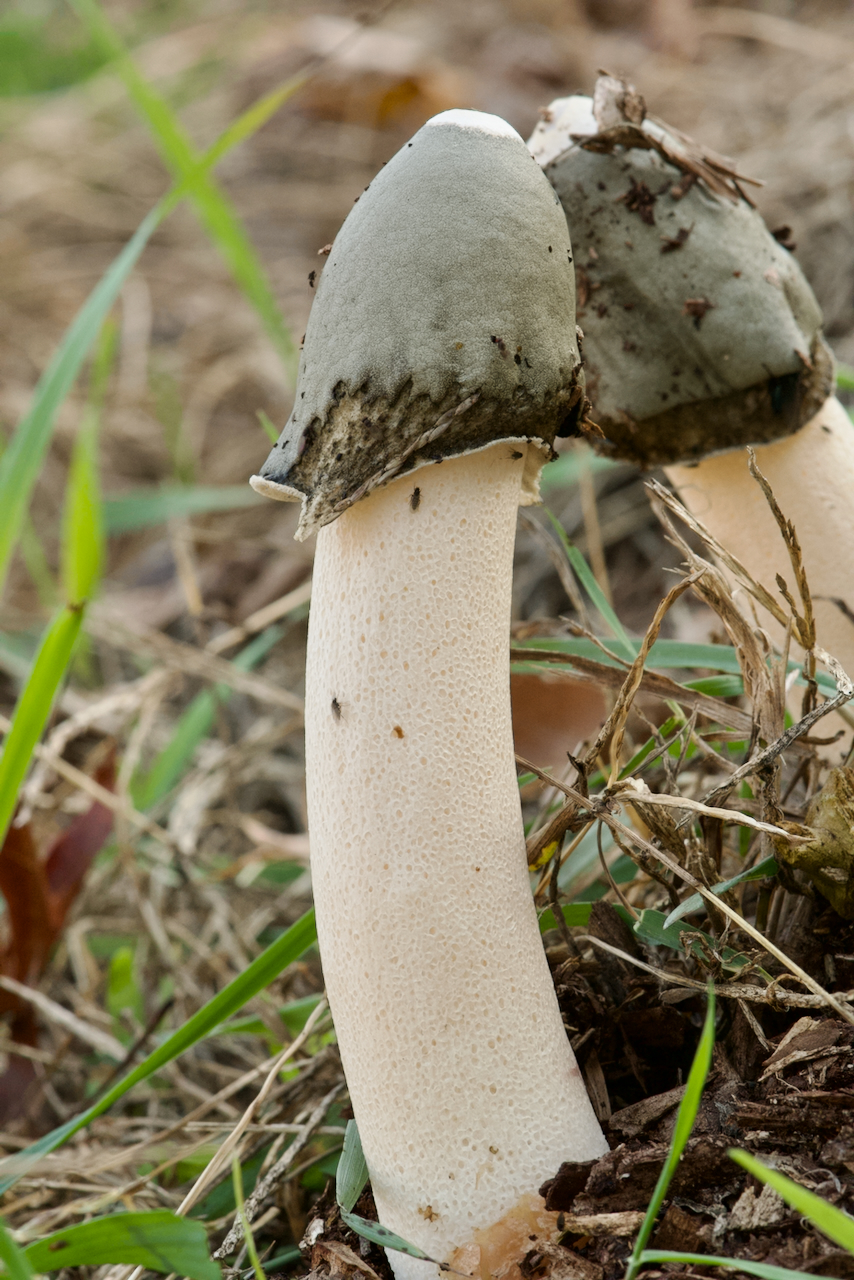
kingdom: Fungi
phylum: Basidiomycota
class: Agaricomycetes
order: Phallales
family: Phallaceae
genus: Phallus
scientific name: Phallus ravenelii
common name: Ravenel's stinkhorn
